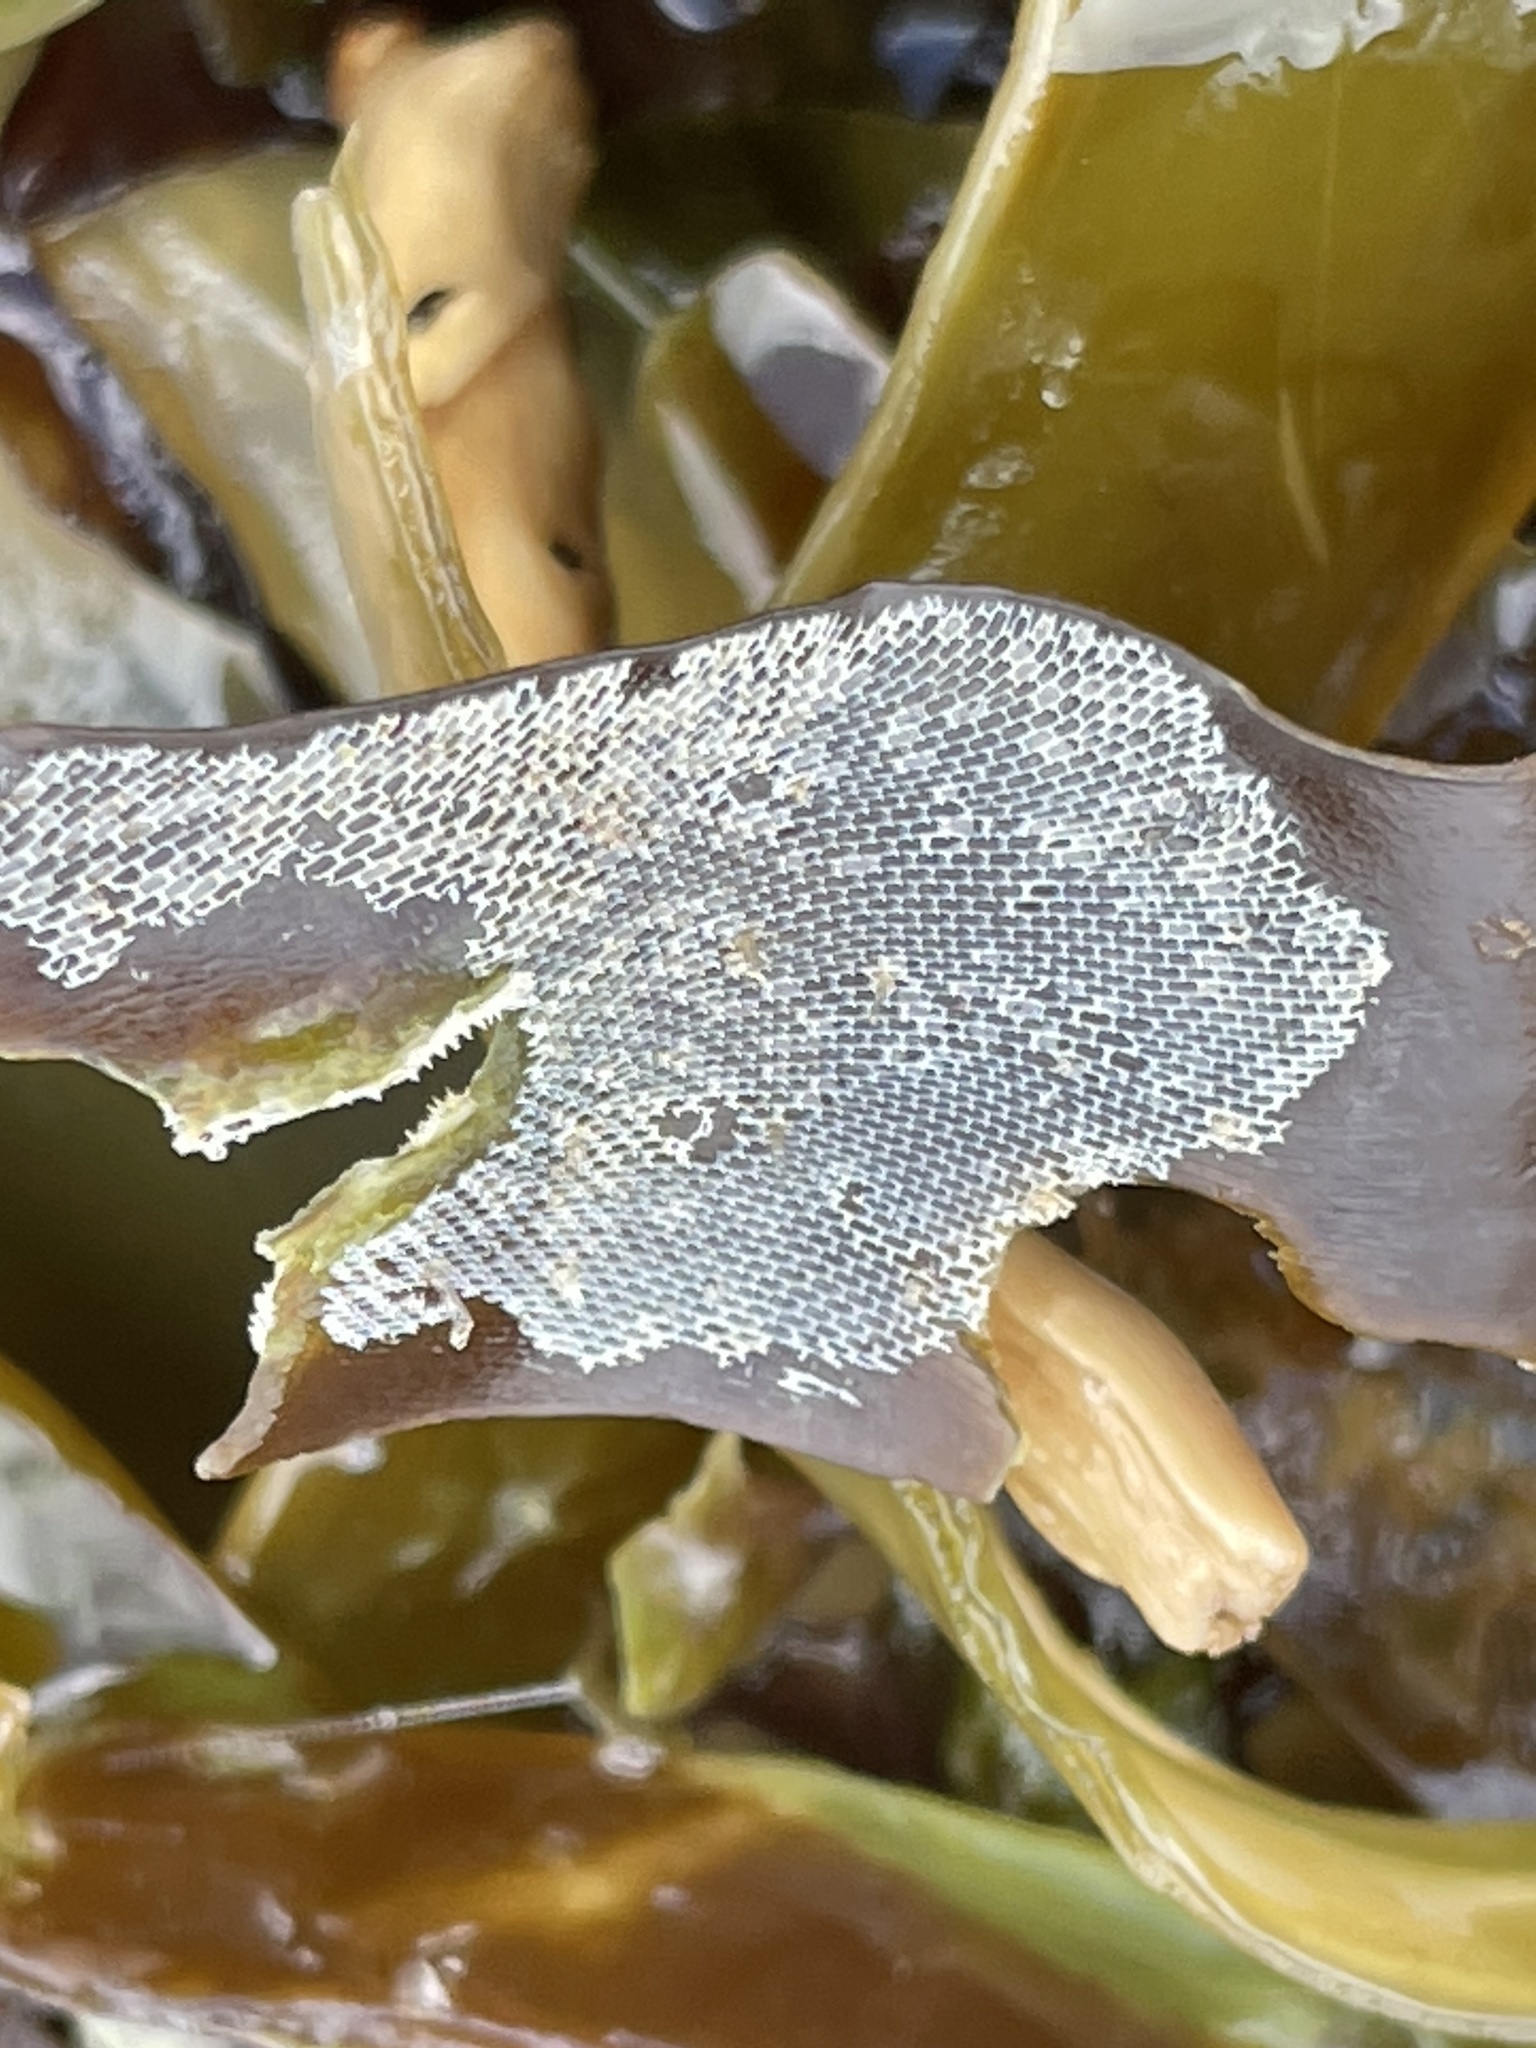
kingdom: Animalia
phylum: Bryozoa
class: Gymnolaemata
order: Cheilostomatida
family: Membraniporidae
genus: Membranipora
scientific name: Membranipora membranacea
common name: Sea mat
